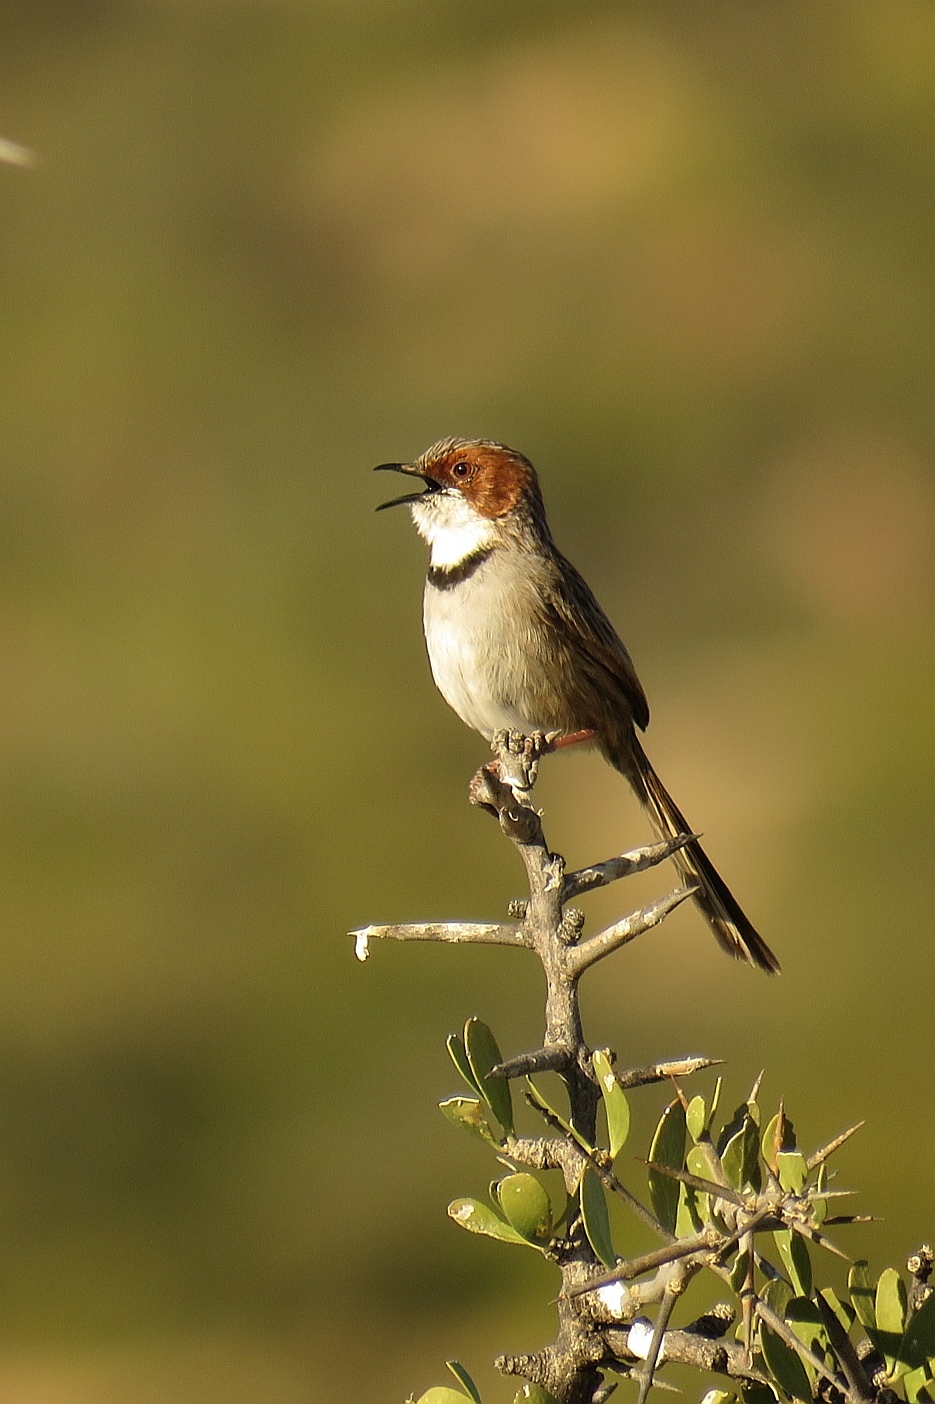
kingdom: Animalia
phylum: Chordata
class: Aves
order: Passeriformes
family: Cisticolidae
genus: Malcorus
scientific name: Malcorus pectoralis
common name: Rufous-eared warbler
